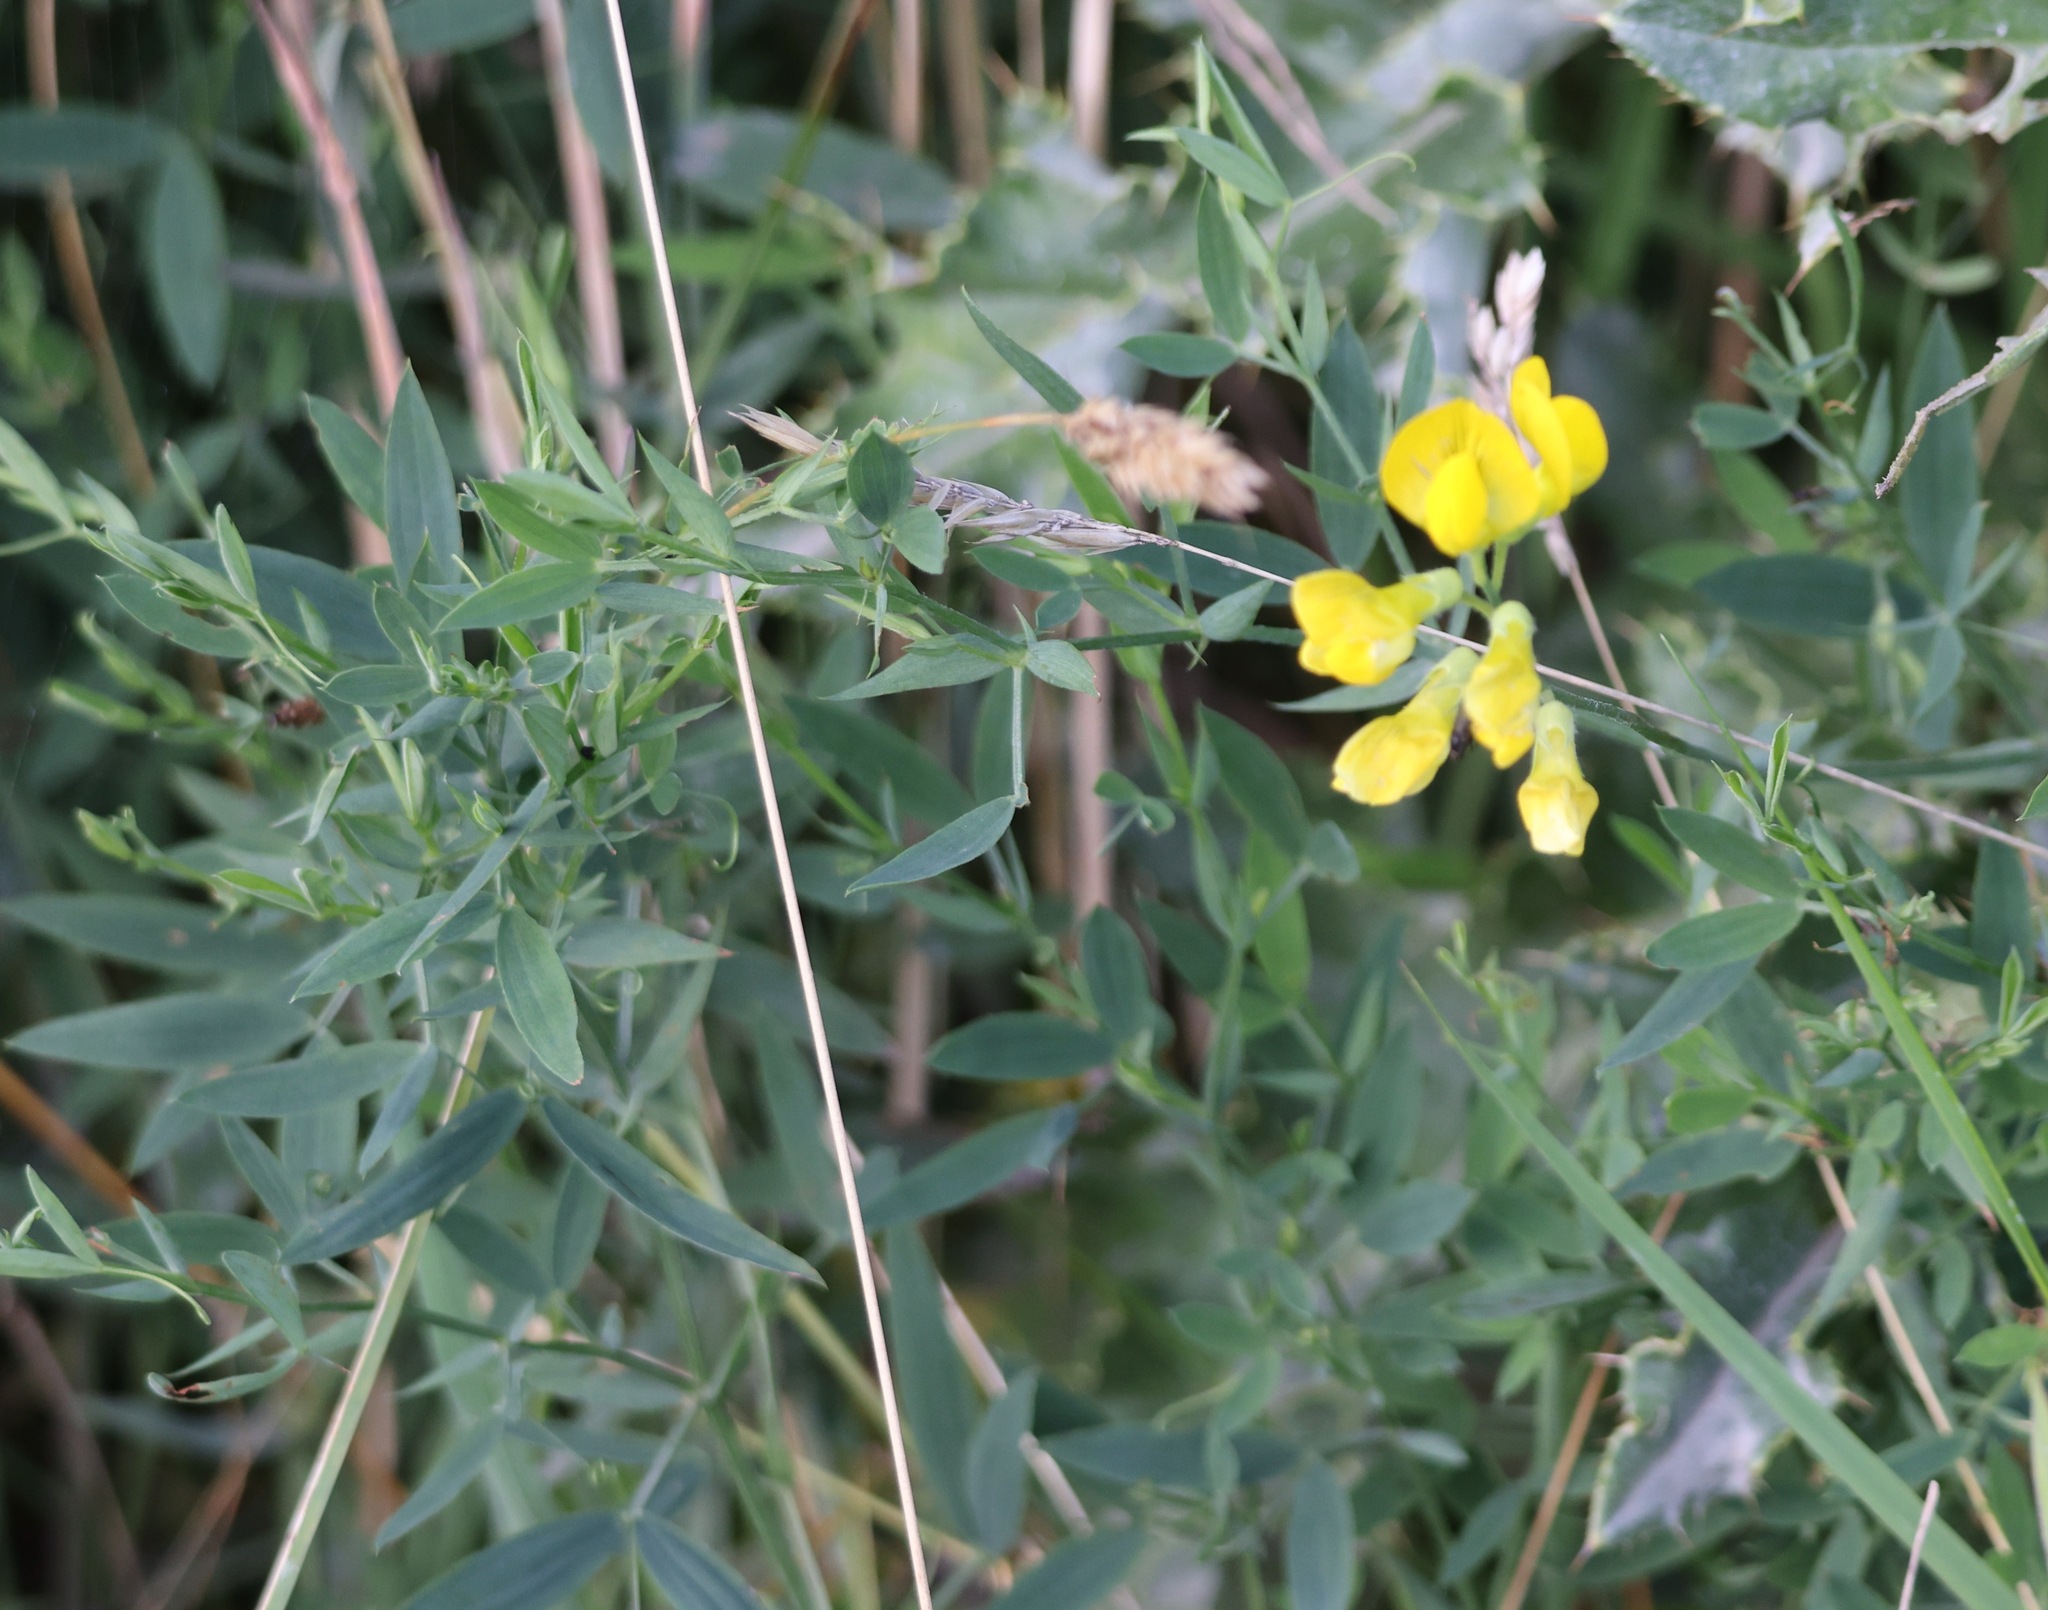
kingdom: Plantae
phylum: Tracheophyta
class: Magnoliopsida
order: Fabales
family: Fabaceae
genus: Lathyrus
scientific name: Lathyrus pratensis
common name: Meadow vetchling
